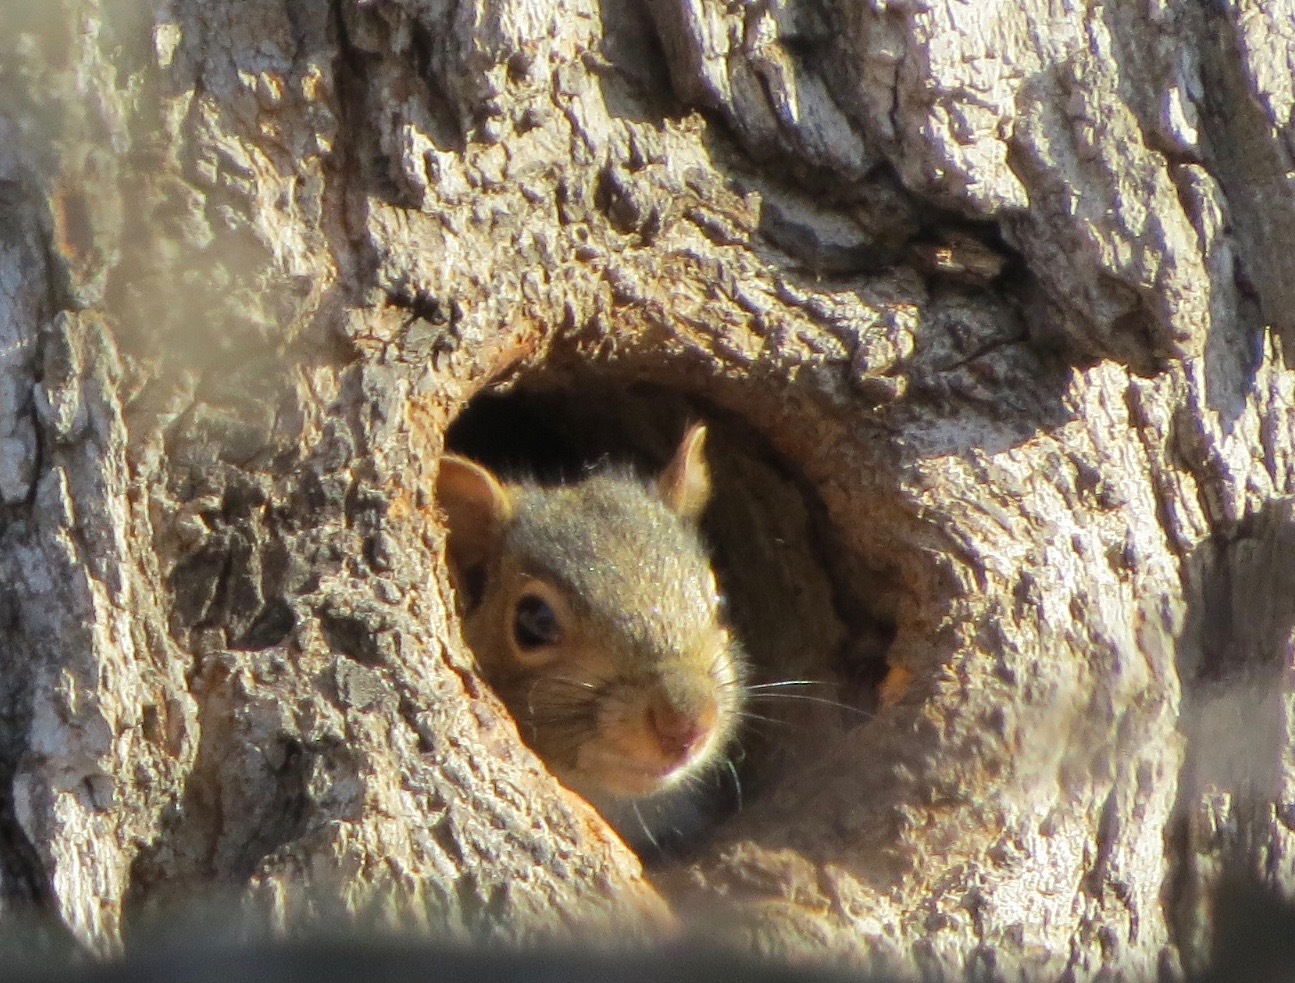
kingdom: Animalia
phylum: Chordata
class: Mammalia
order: Rodentia
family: Sciuridae
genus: Sciurus
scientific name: Sciurus carolinensis
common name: Eastern gray squirrel
